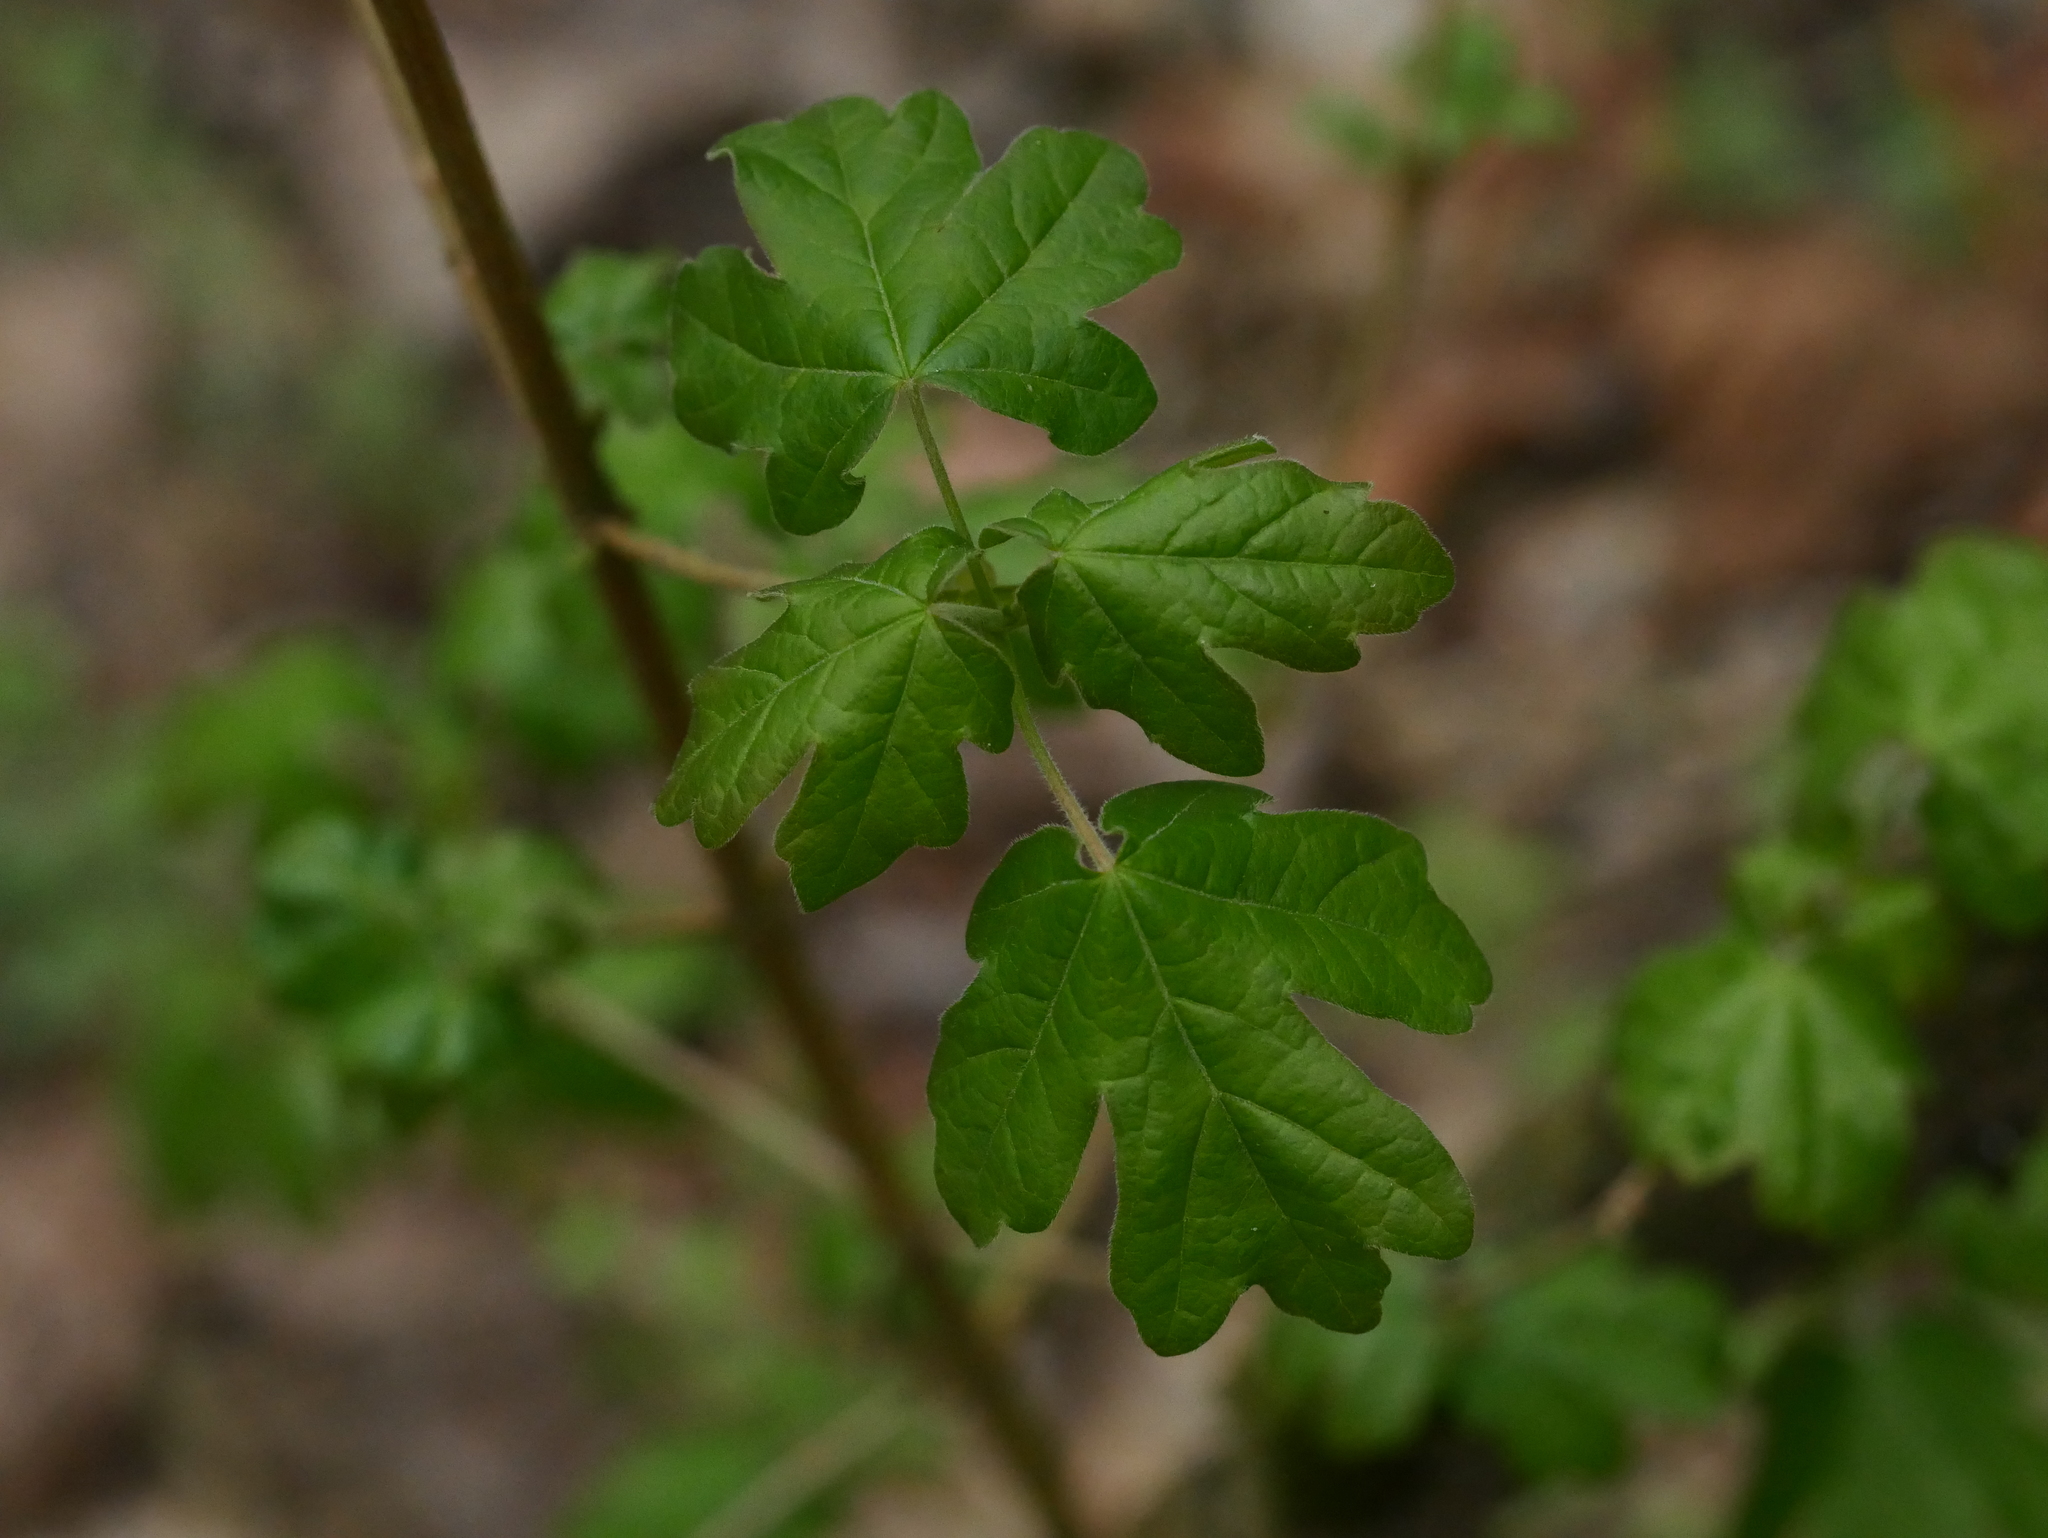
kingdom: Plantae
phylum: Tracheophyta
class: Magnoliopsida
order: Sapindales
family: Sapindaceae
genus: Acer
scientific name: Acer campestre
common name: Field maple
